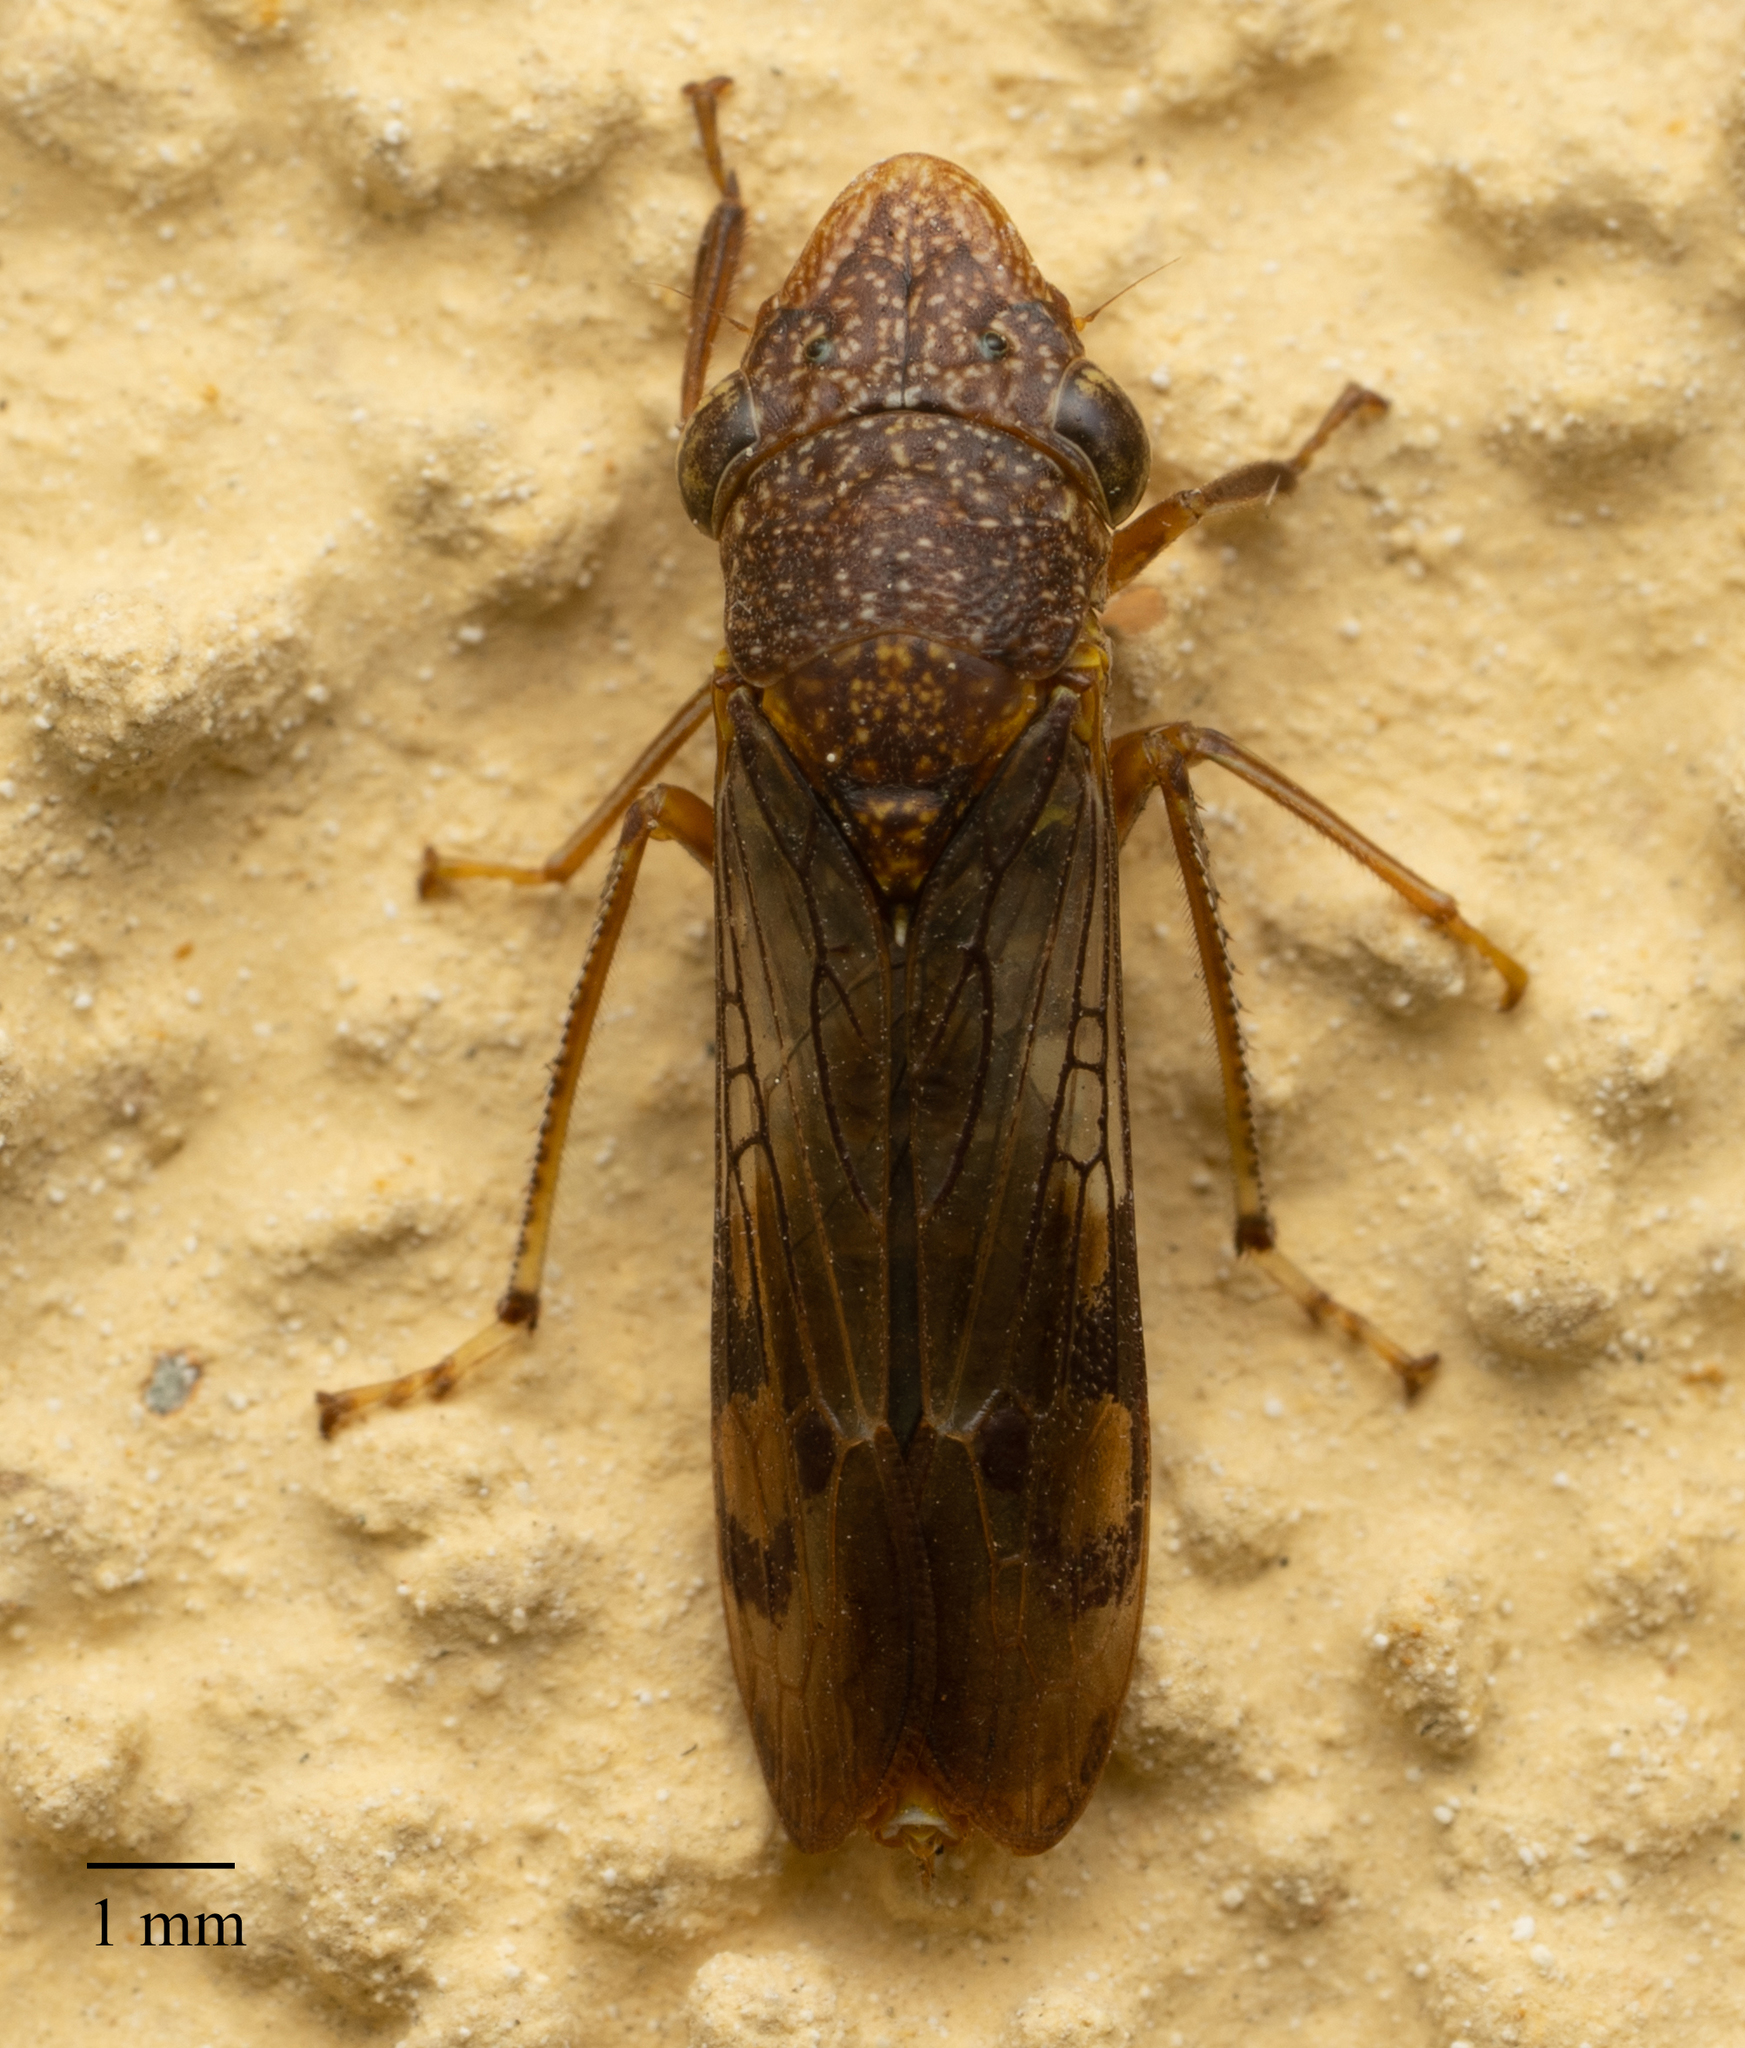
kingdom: Animalia
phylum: Arthropoda
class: Insecta
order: Hemiptera
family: Cicadellidae
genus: Homalodisca
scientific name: Homalodisca vitripennis
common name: Glassy-winged sharpshooter
